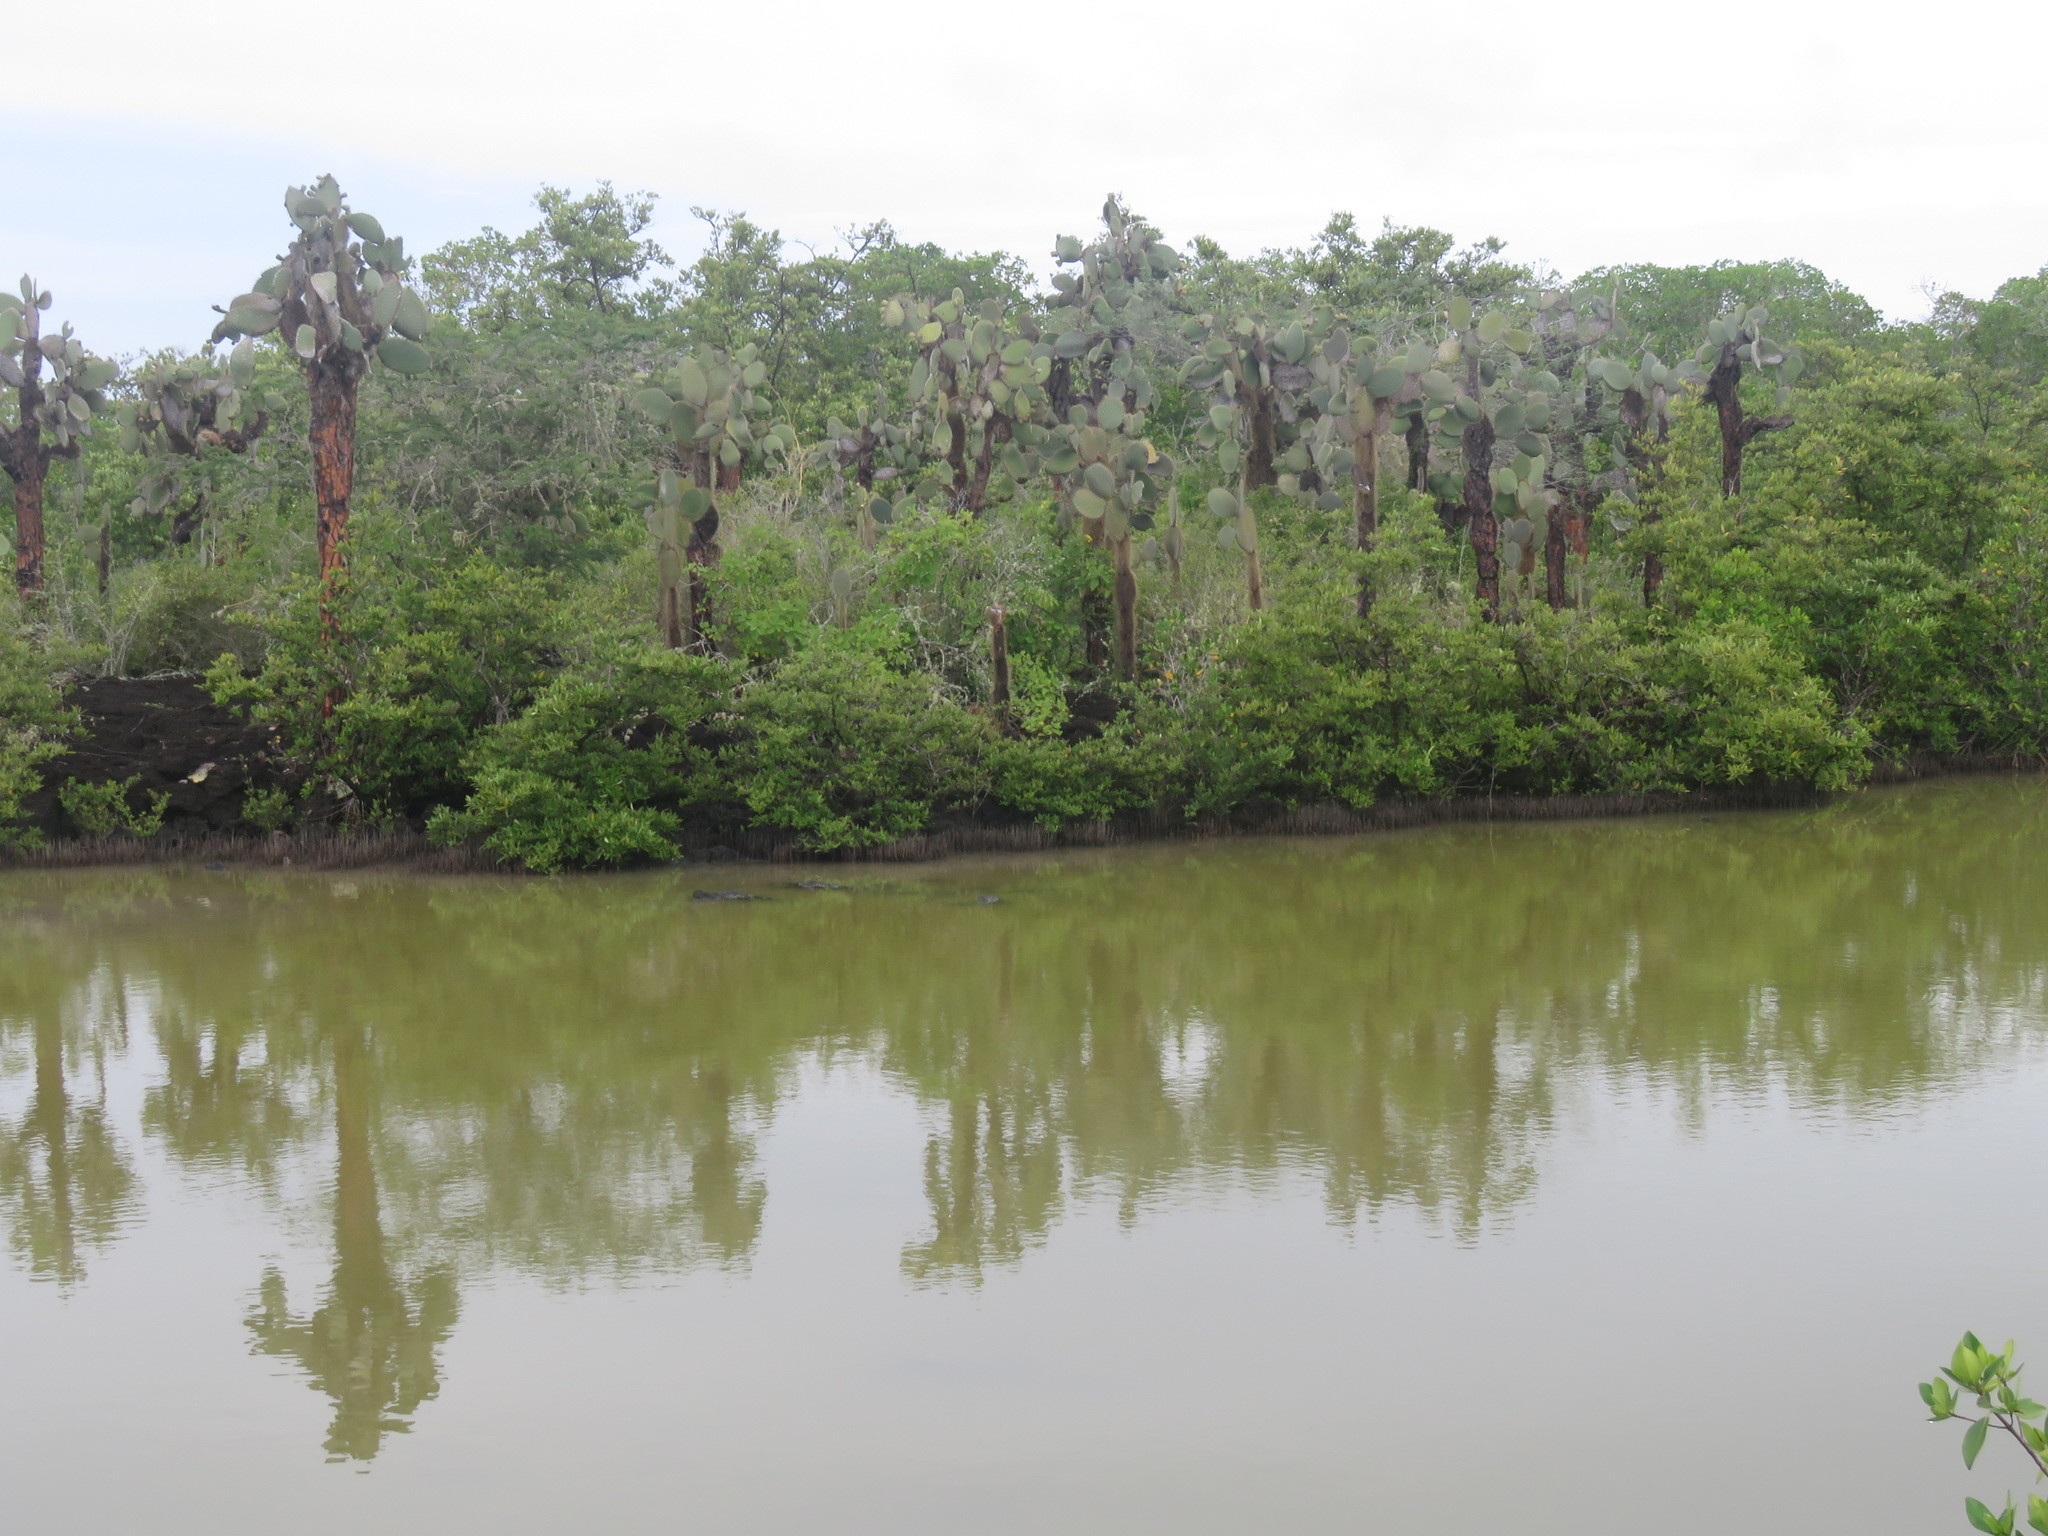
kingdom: Plantae
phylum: Tracheophyta
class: Magnoliopsida
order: Caryophyllales
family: Cactaceae
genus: Opuntia
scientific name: Opuntia galapageia
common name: Galápagos prickly pear
